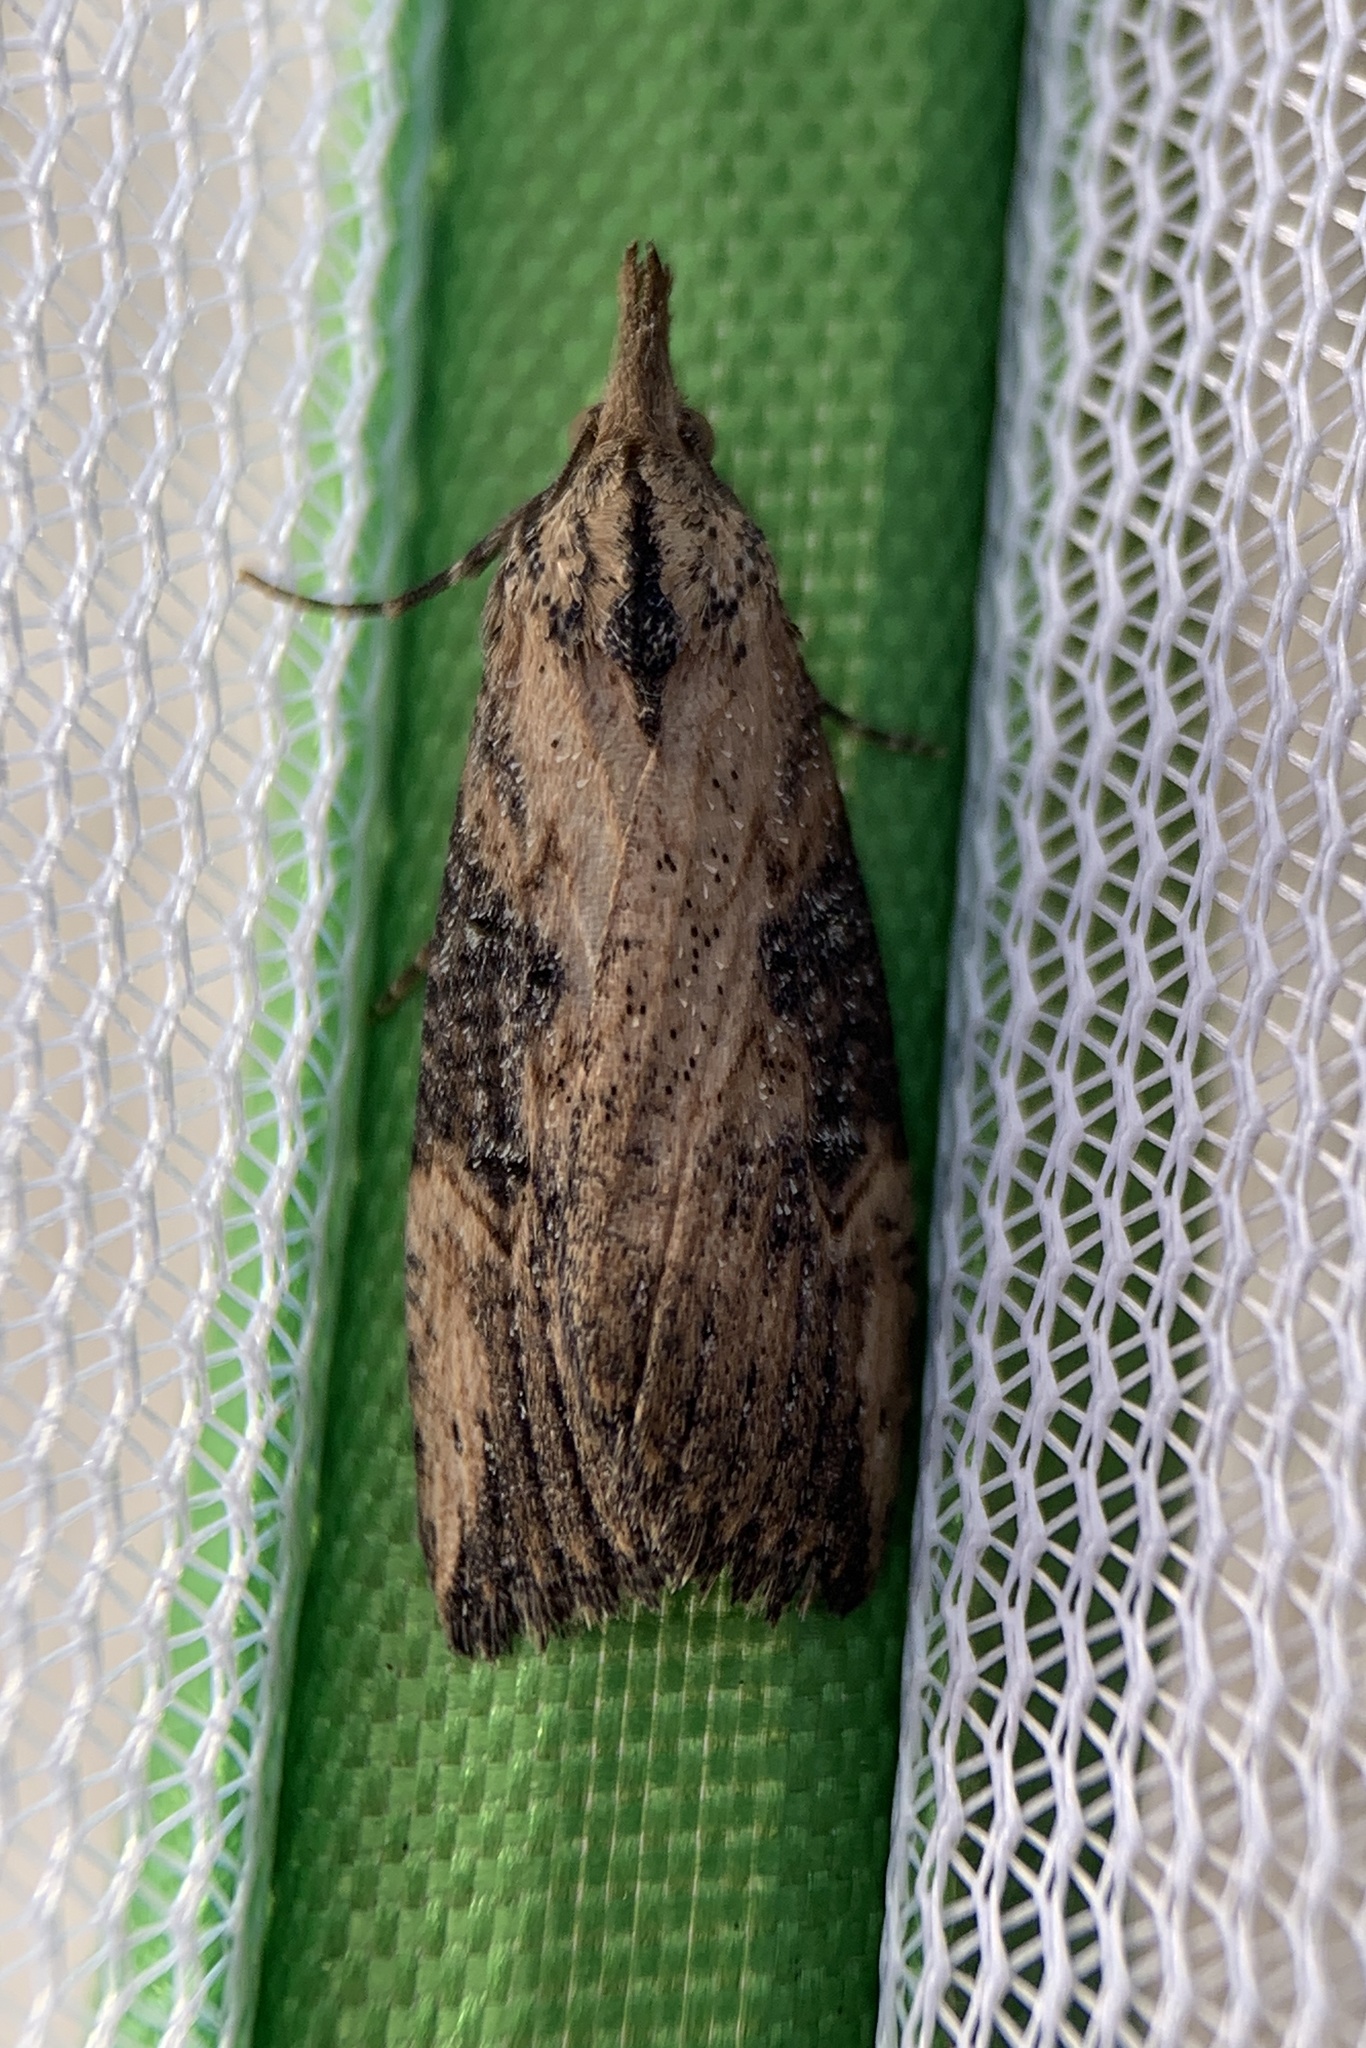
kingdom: Animalia
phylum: Arthropoda
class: Insecta
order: Lepidoptera
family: Erebidae
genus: Hypena
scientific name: Hypena humuli
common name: Hop vine snout
